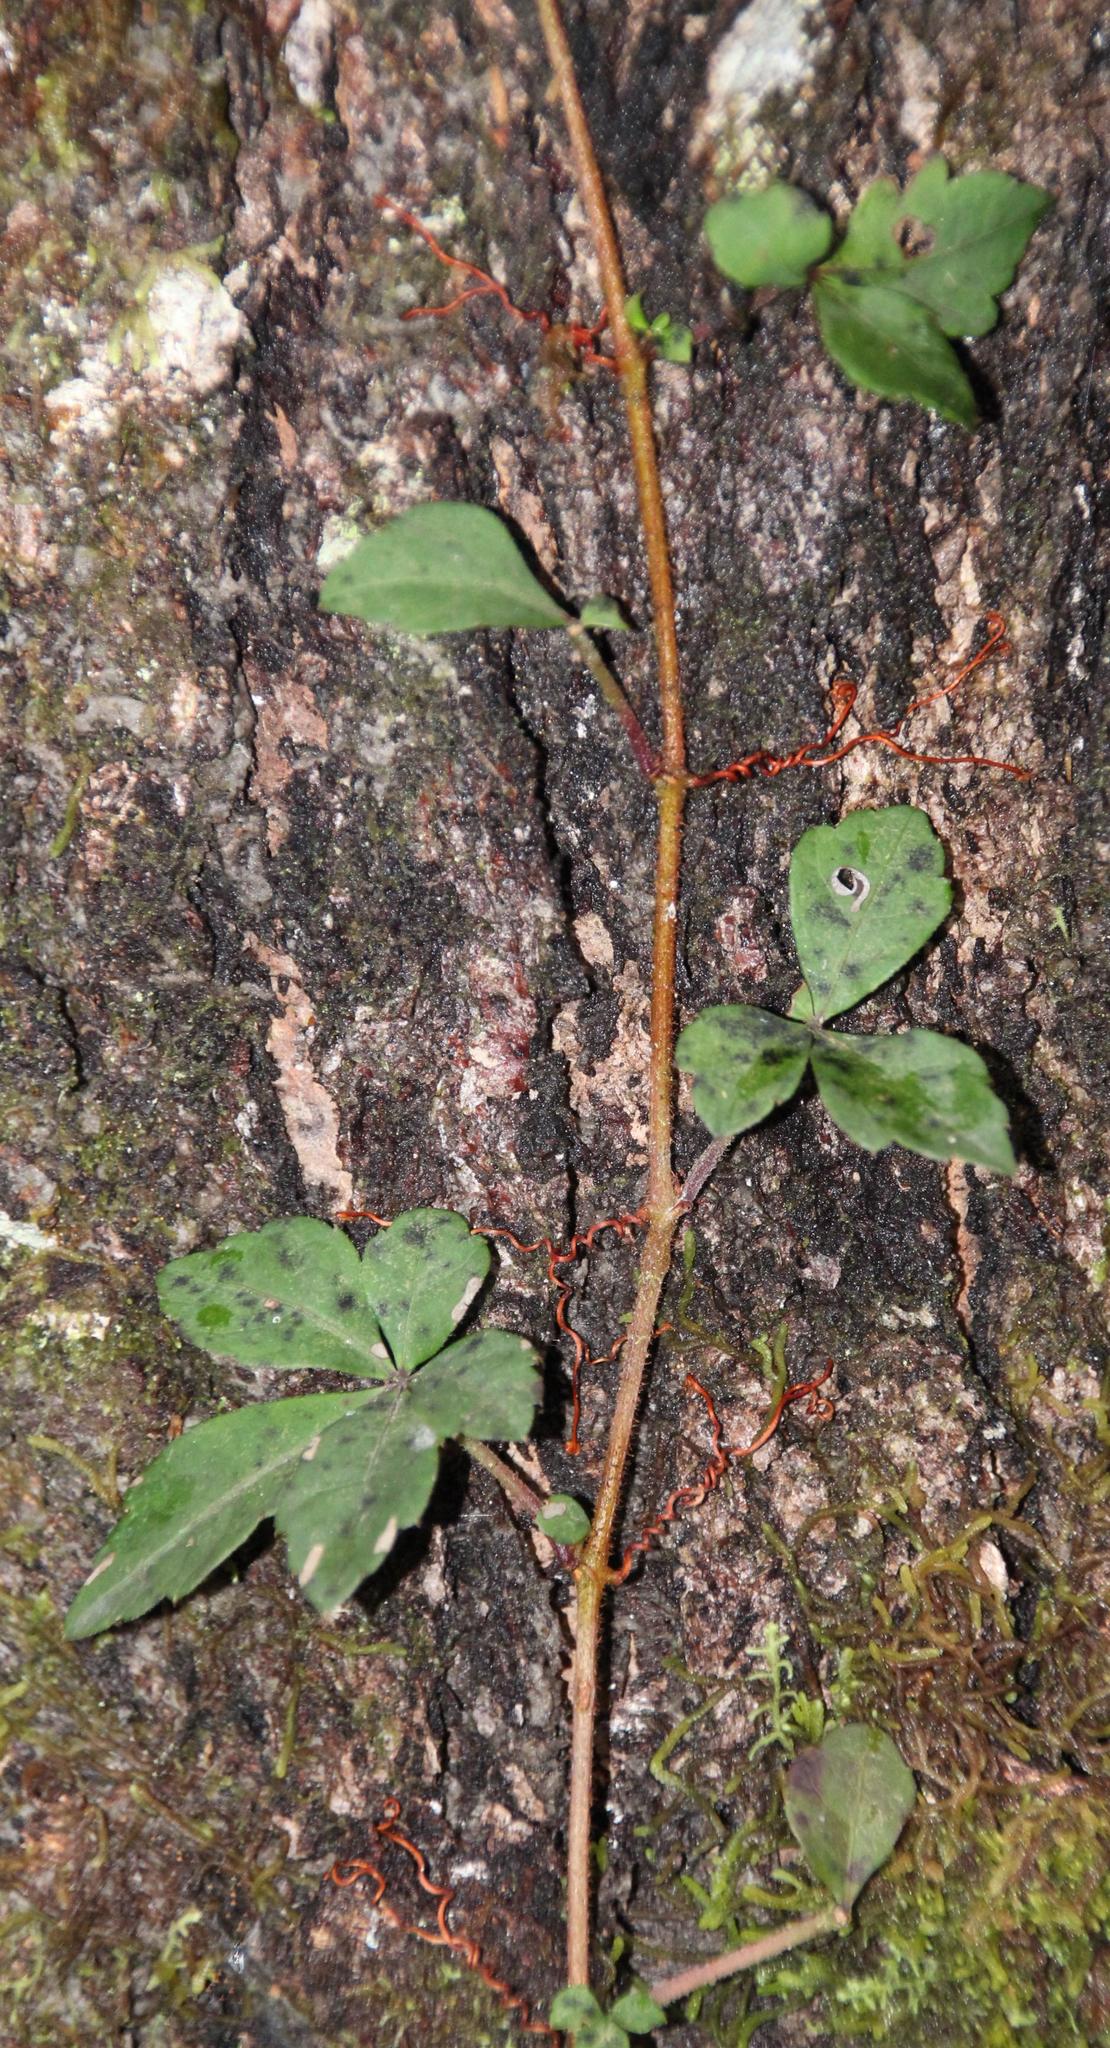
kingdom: Plantae
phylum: Tracheophyta
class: Magnoliopsida
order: Vitales
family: Vitaceae
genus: Clematicissus
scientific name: Clematicissus striata
